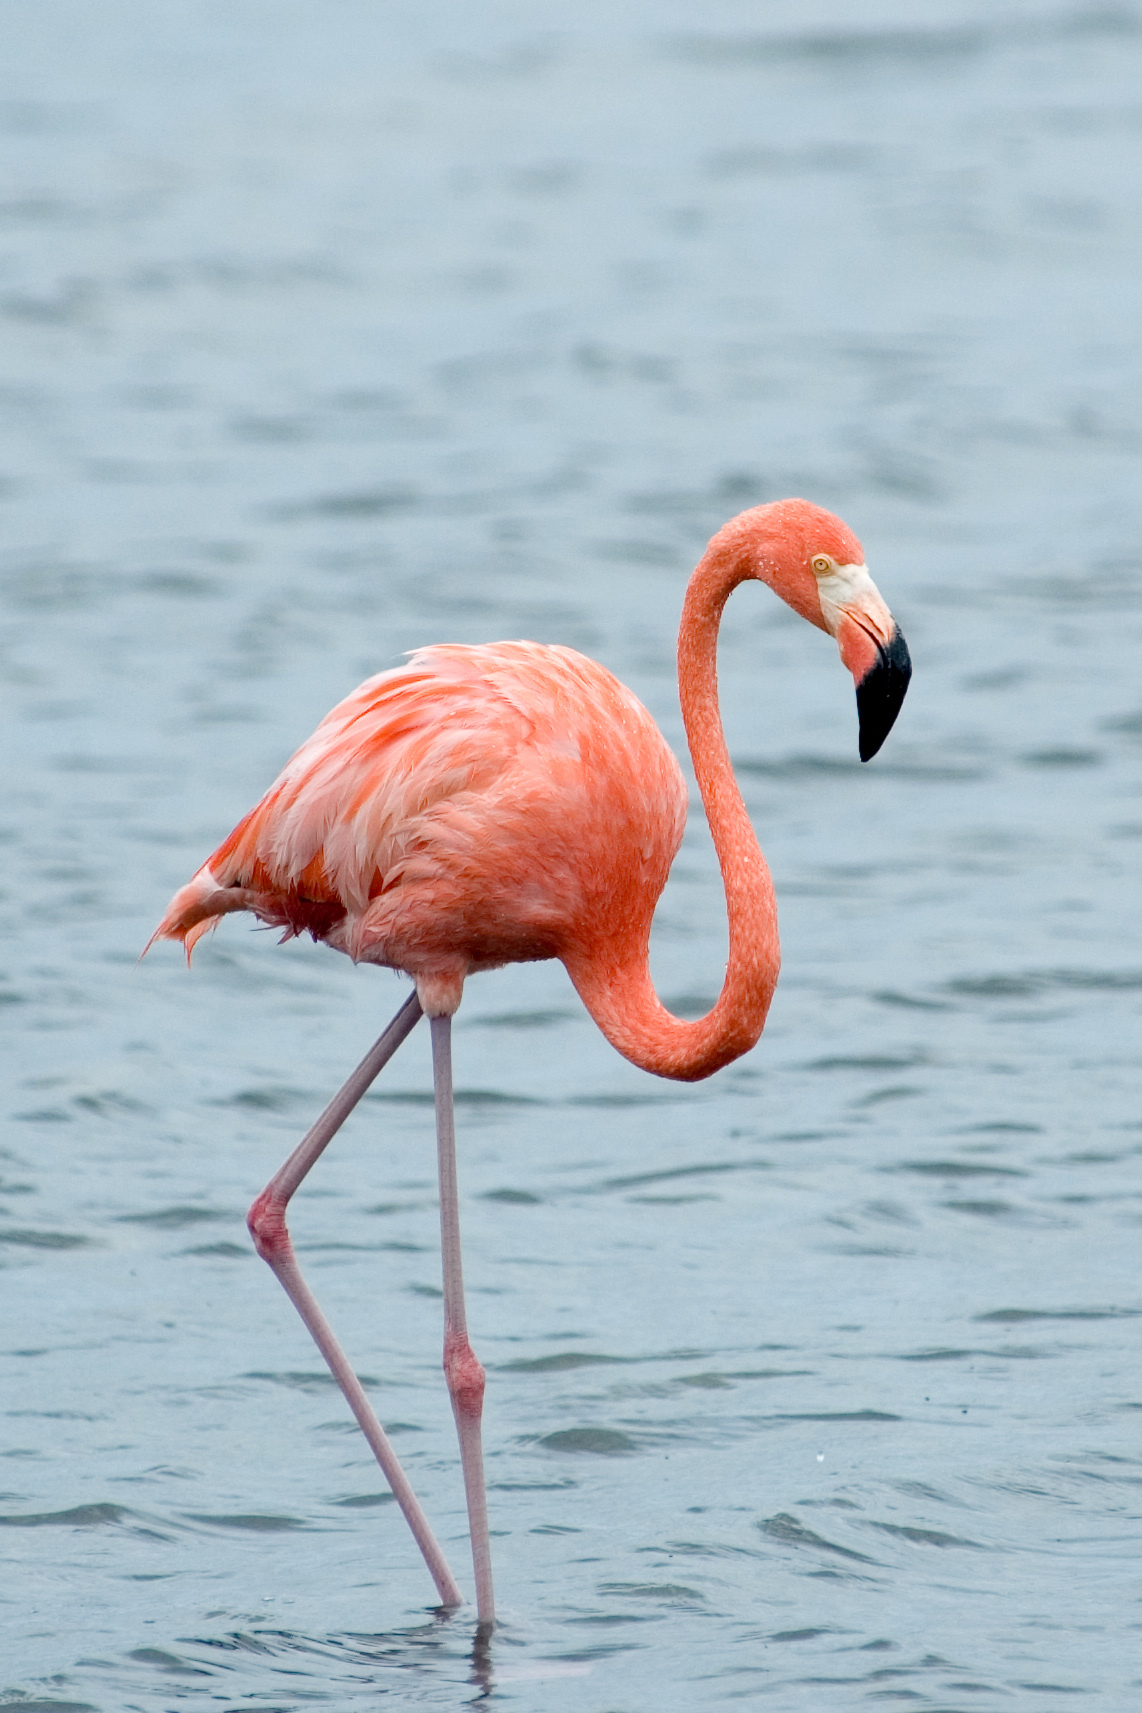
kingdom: Animalia
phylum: Chordata
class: Aves
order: Phoenicopteriformes
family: Phoenicopteridae
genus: Phoenicopterus
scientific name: Phoenicopterus ruber
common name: American flamingo
